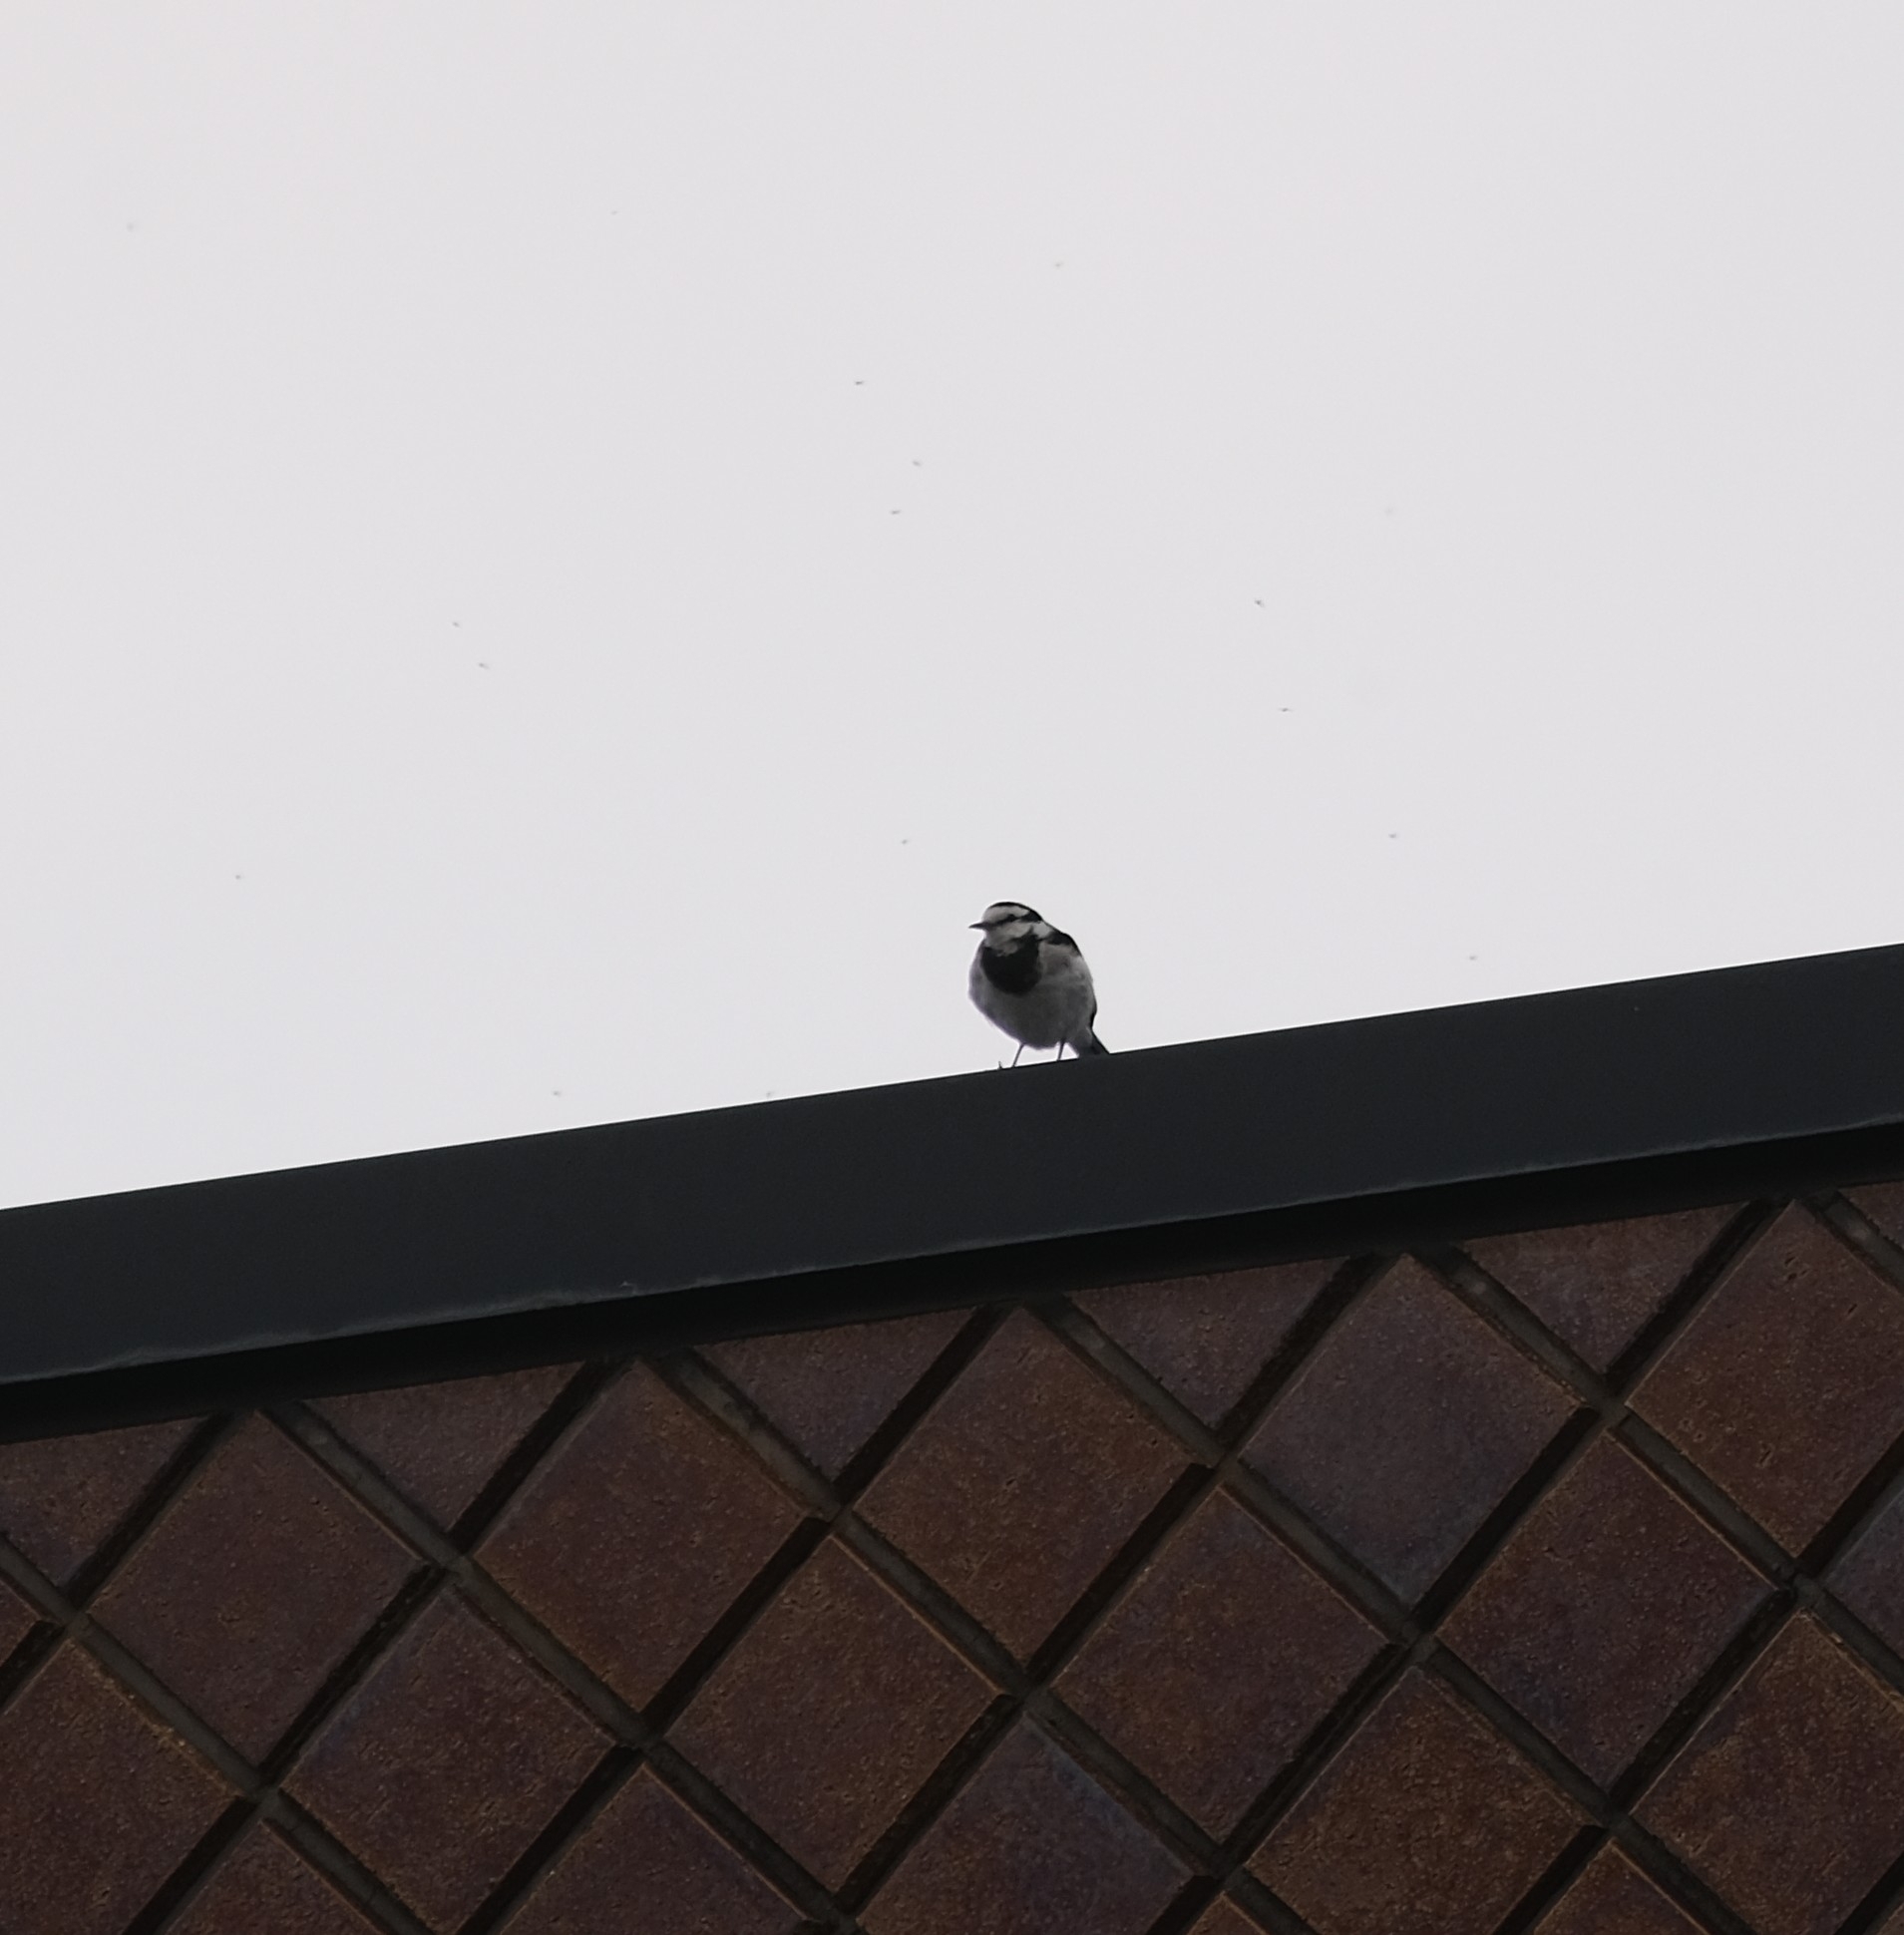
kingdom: Animalia
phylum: Chordata
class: Aves
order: Passeriformes
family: Motacillidae
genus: Motacilla
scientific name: Motacilla alba
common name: White wagtail
